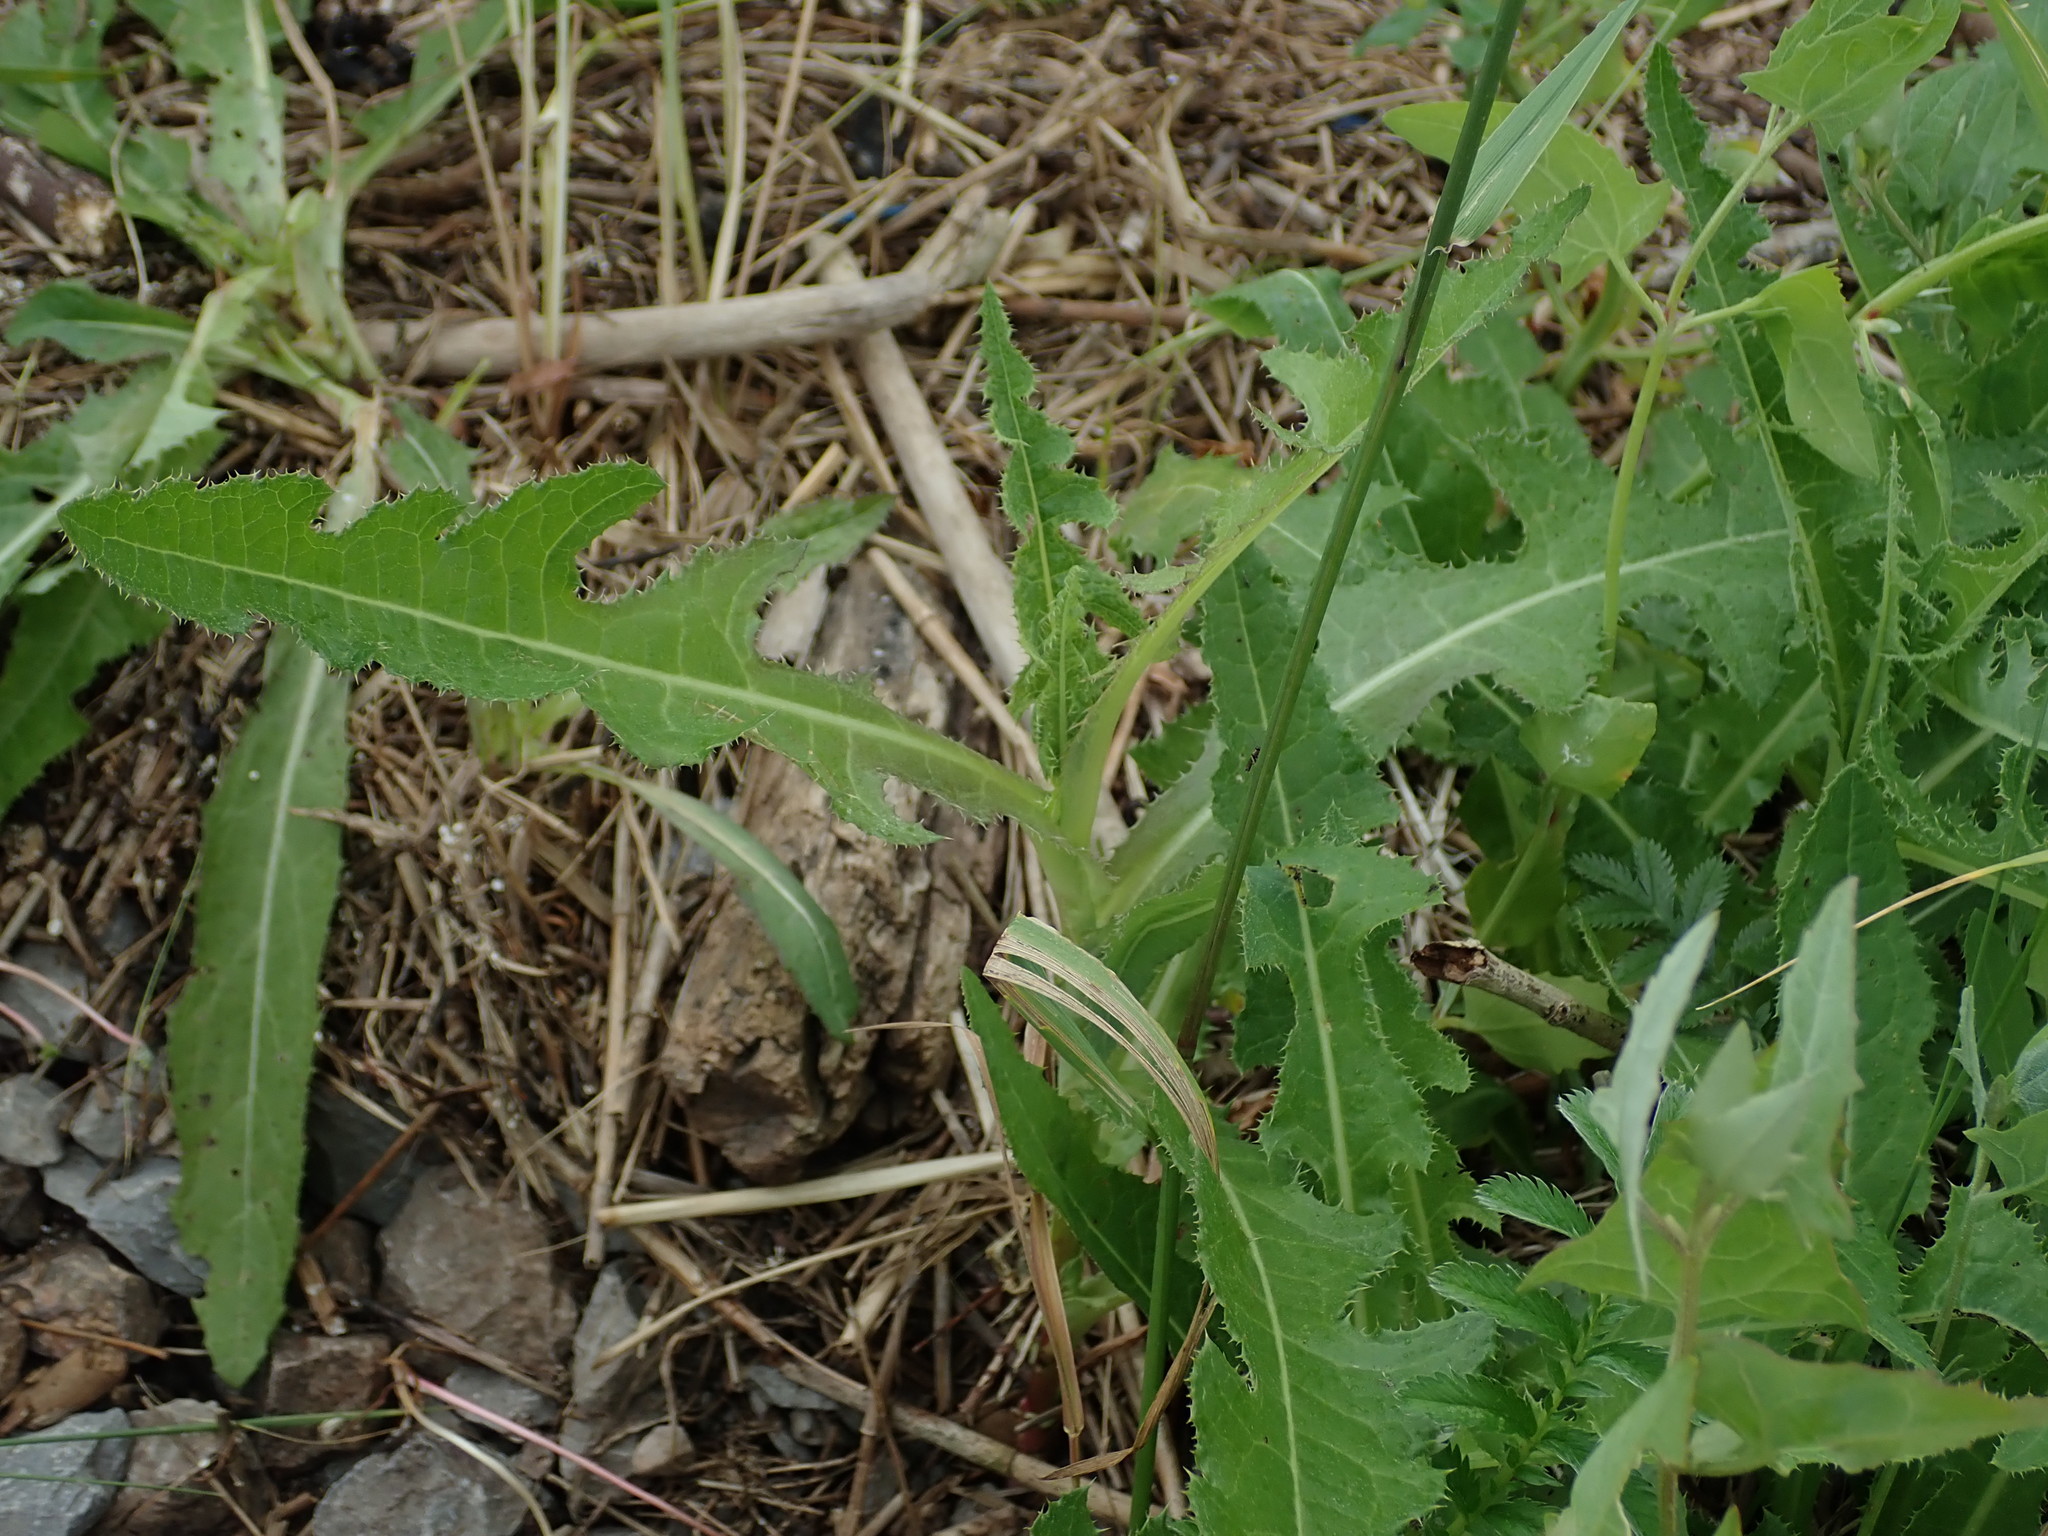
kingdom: Plantae
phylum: Tracheophyta
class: Magnoliopsida
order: Asterales
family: Asteraceae
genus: Sonchus
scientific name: Sonchus arvensis
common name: Perennial sow-thistle
